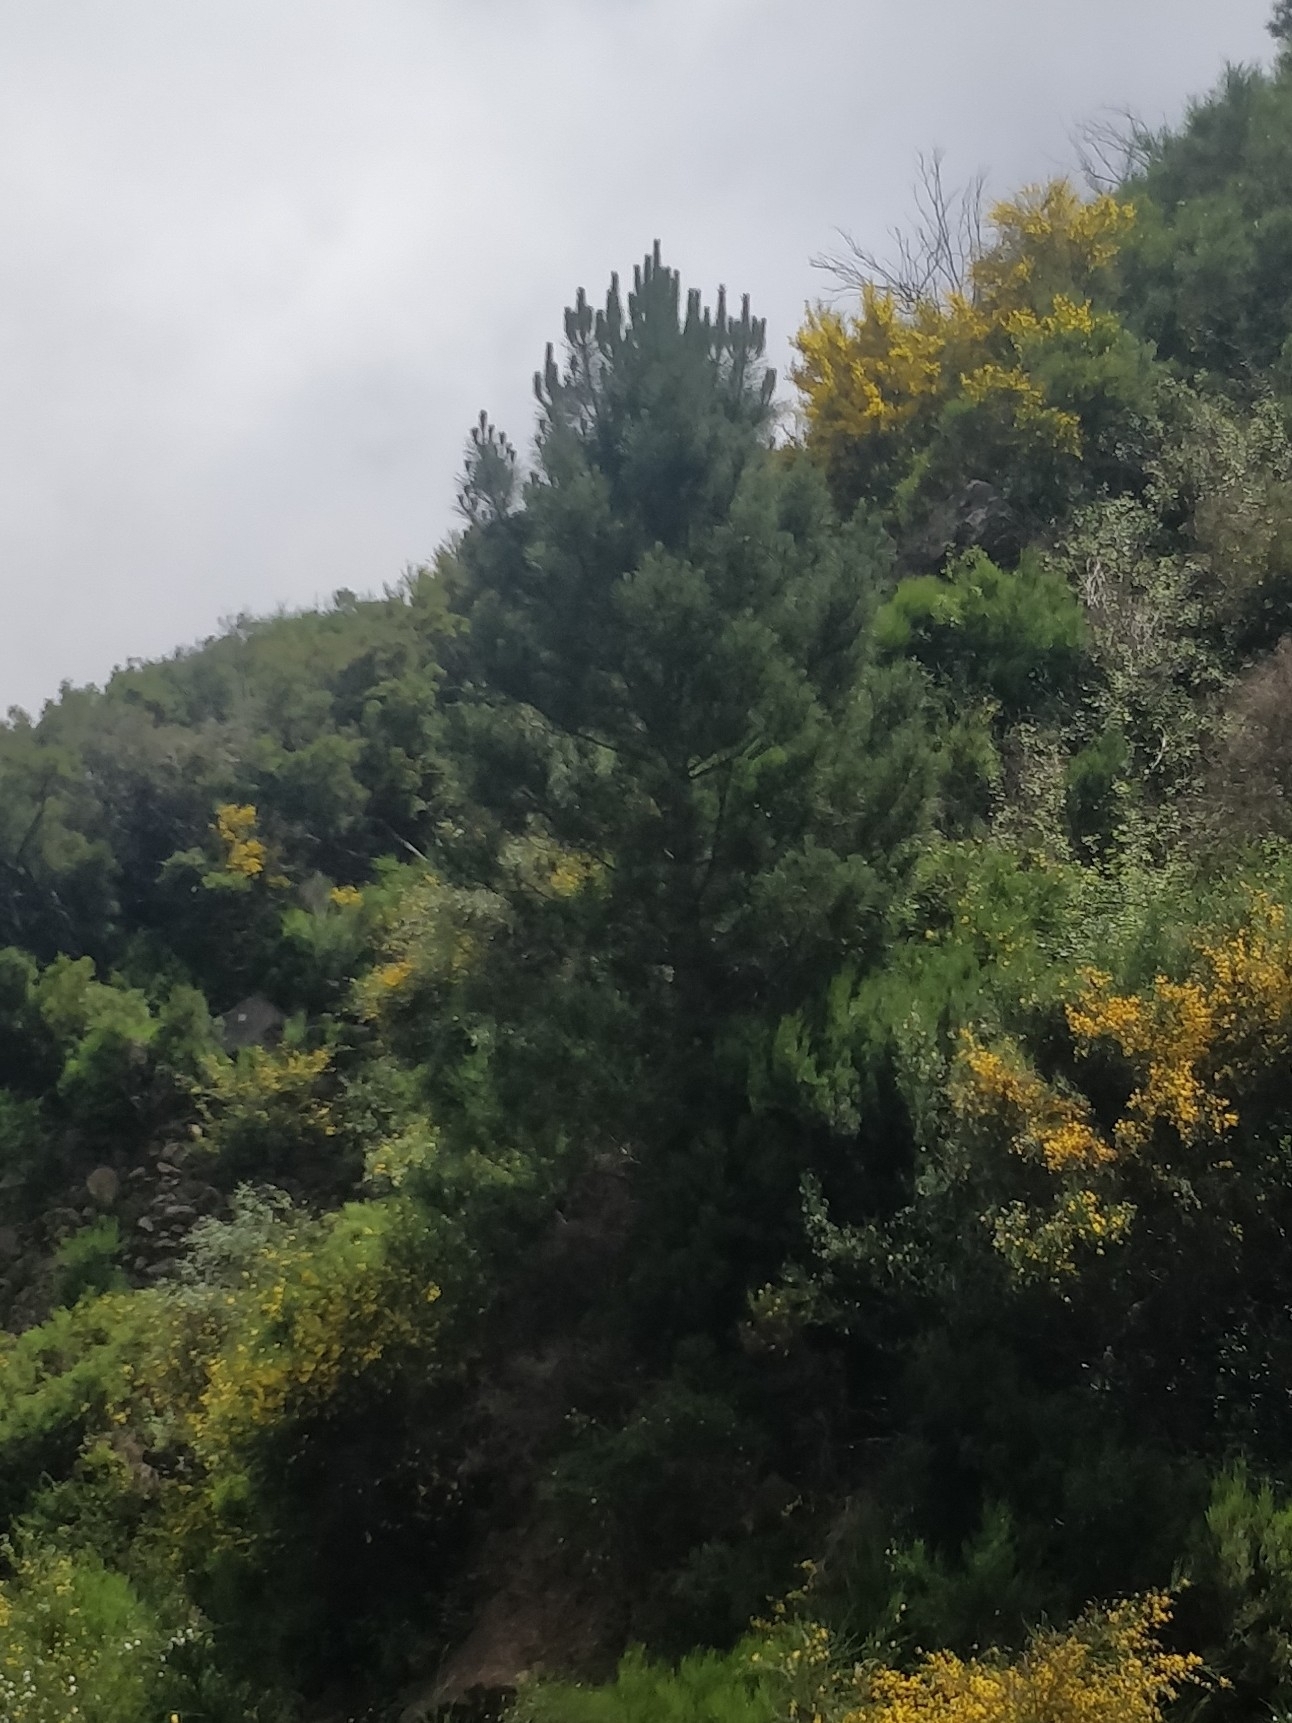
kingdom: Plantae
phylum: Tracheophyta
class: Pinopsida
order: Pinales
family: Pinaceae
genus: Pinus
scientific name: Pinus pinaster
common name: Maritime pine
